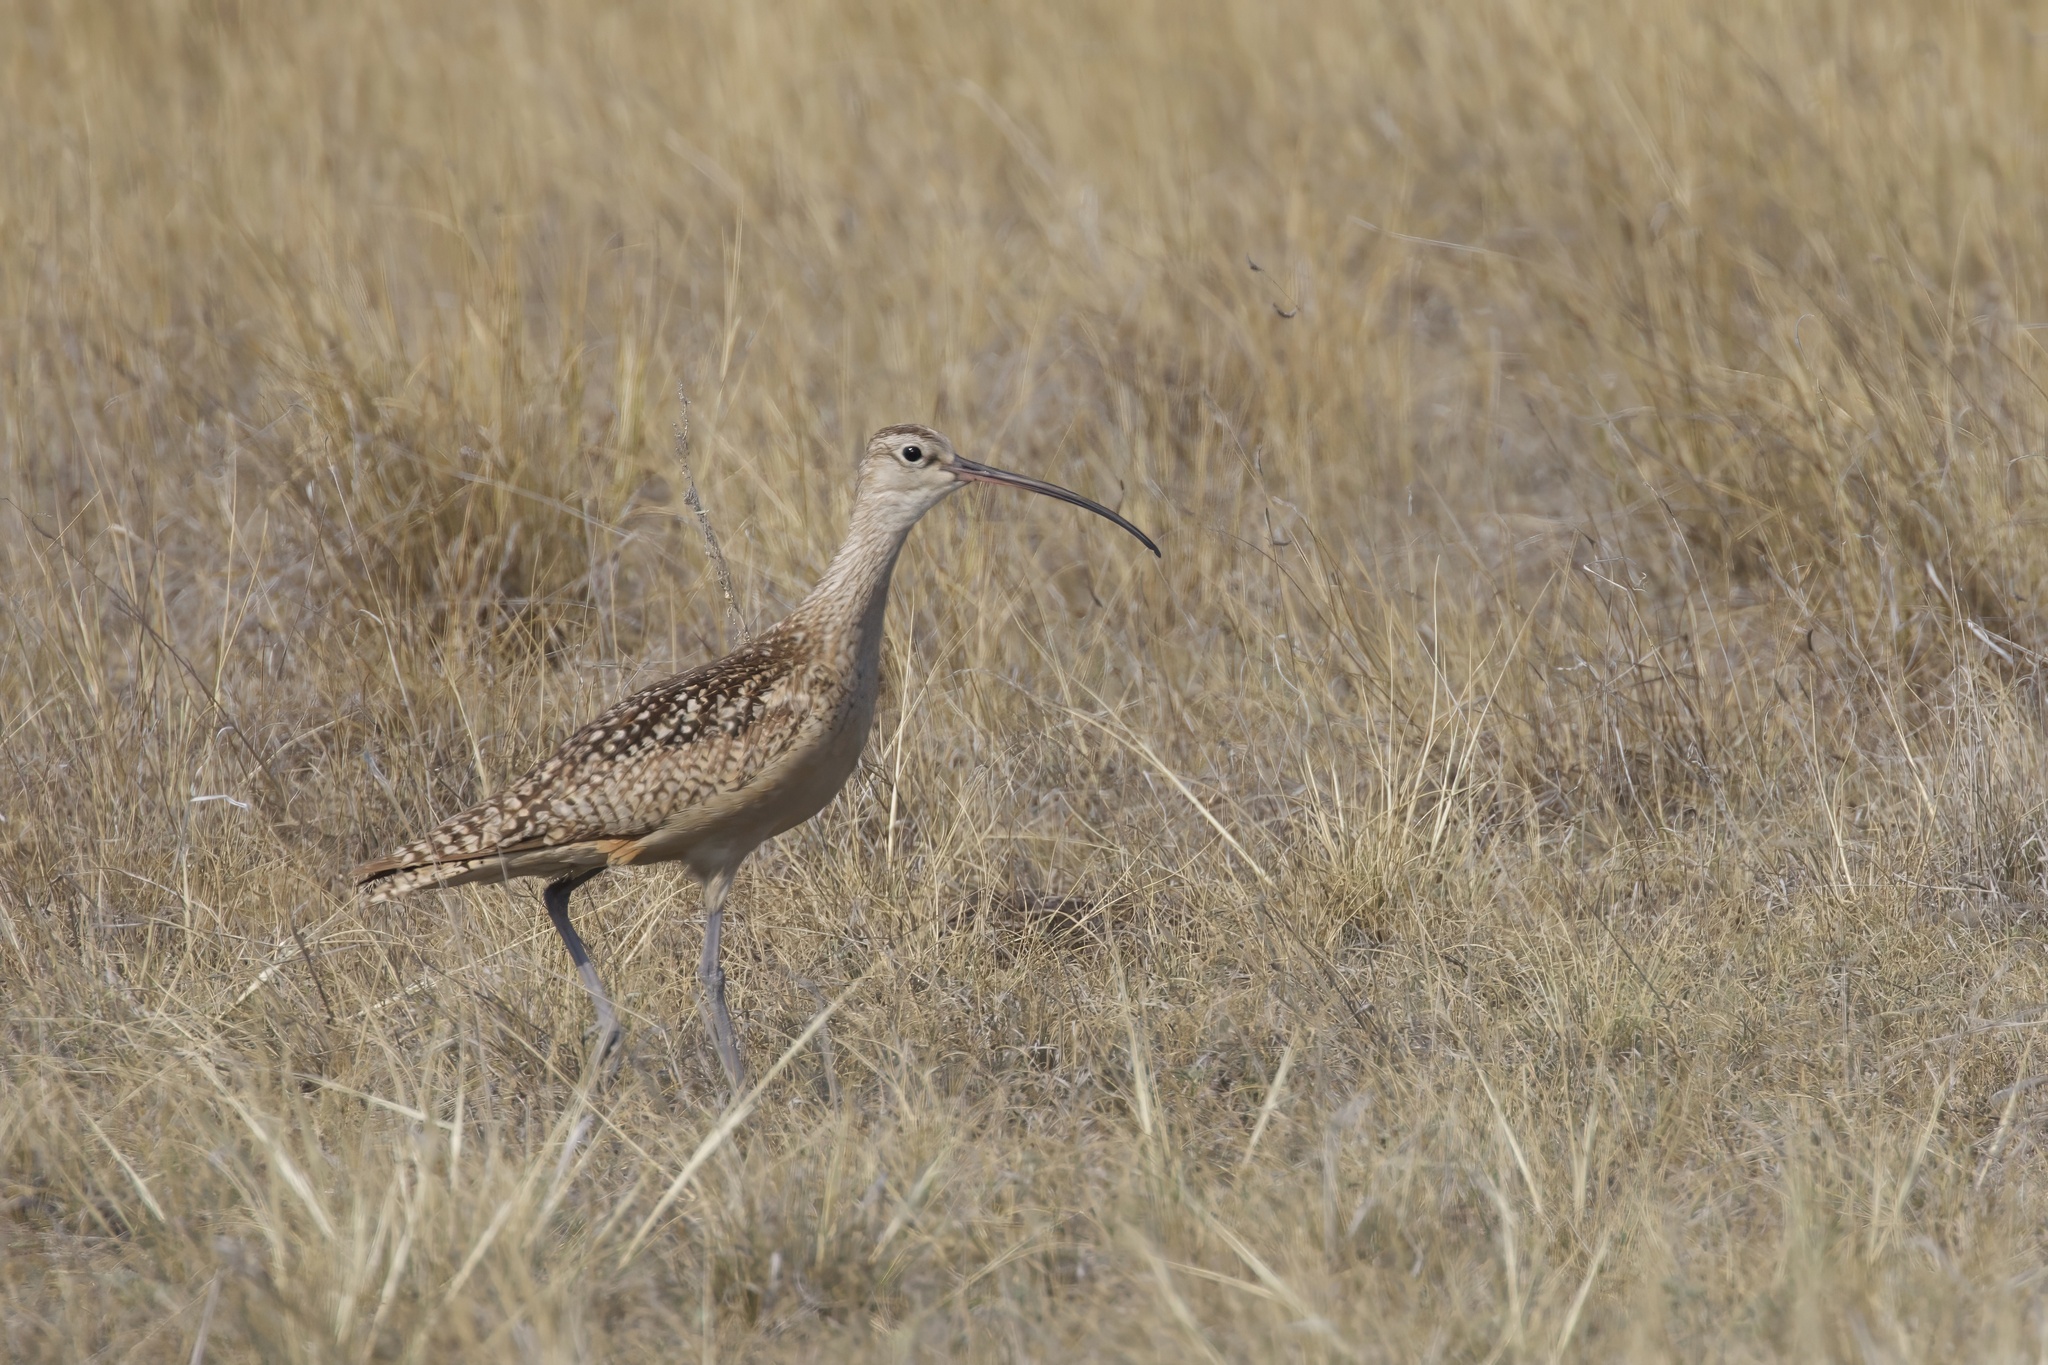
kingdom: Animalia
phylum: Chordata
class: Aves
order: Charadriiformes
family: Scolopacidae
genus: Numenius
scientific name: Numenius americanus
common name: Long-billed curlew
